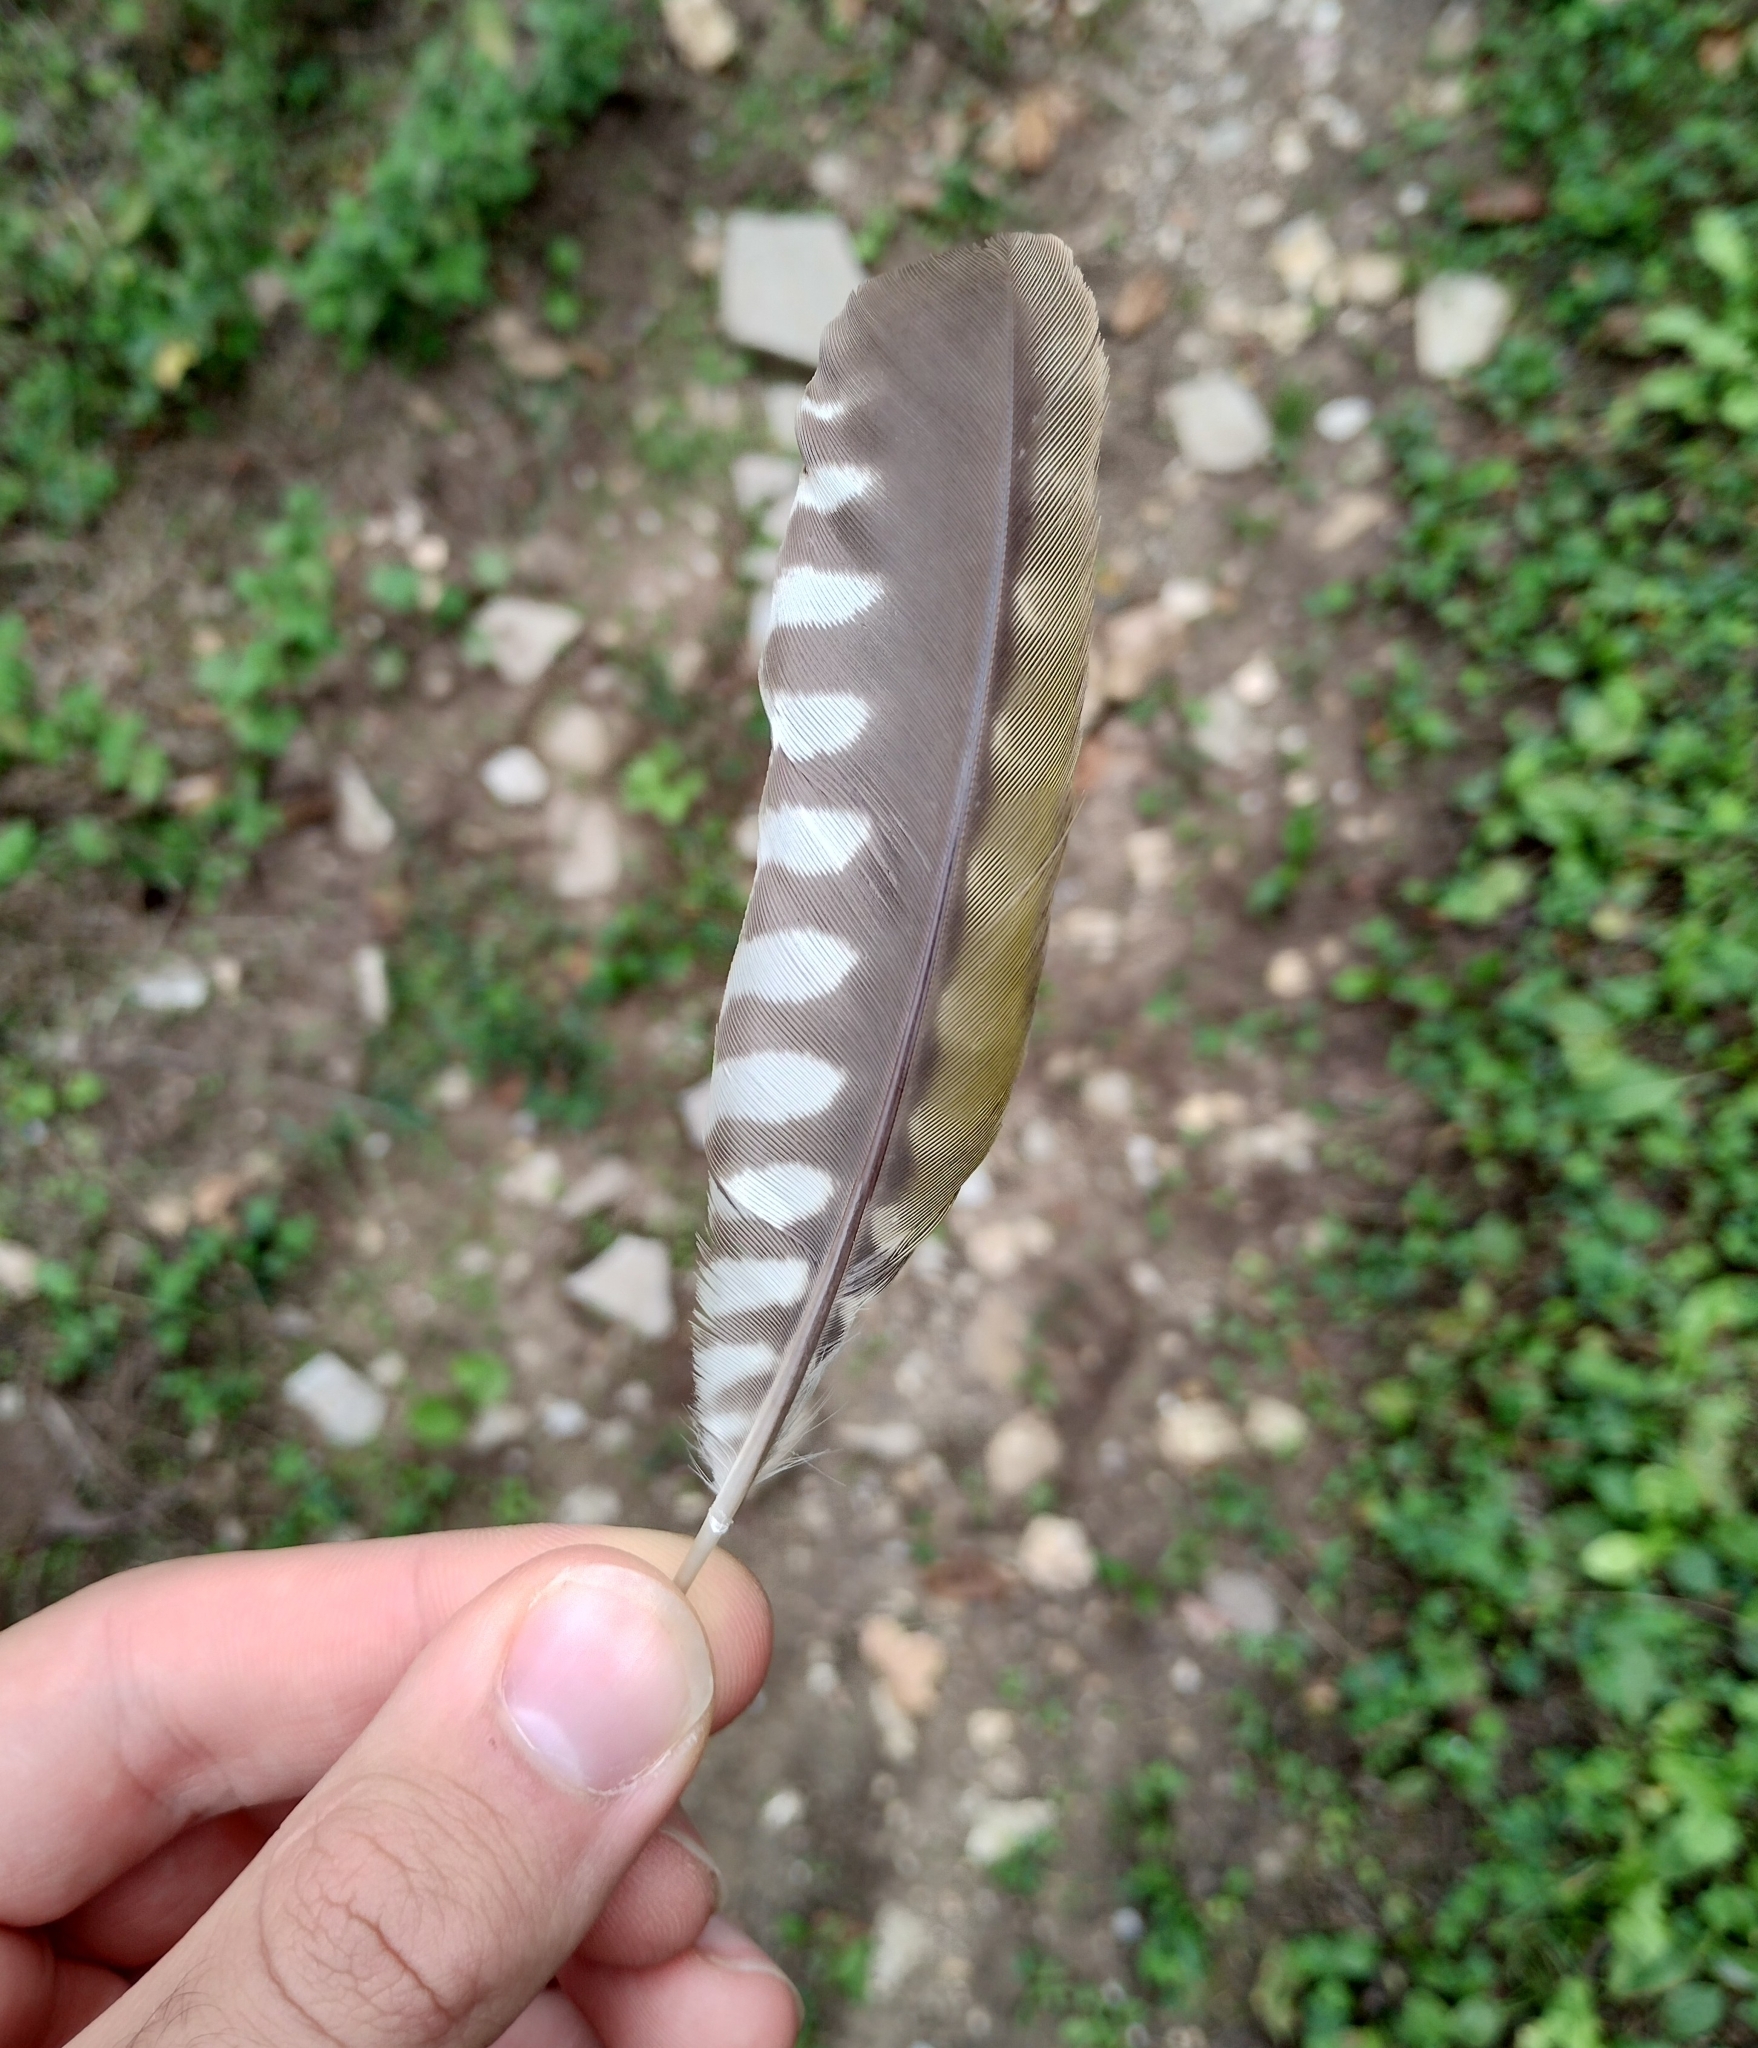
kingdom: Animalia
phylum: Chordata
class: Aves
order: Piciformes
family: Picidae
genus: Picus
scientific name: Picus viridis
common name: European green woodpecker
